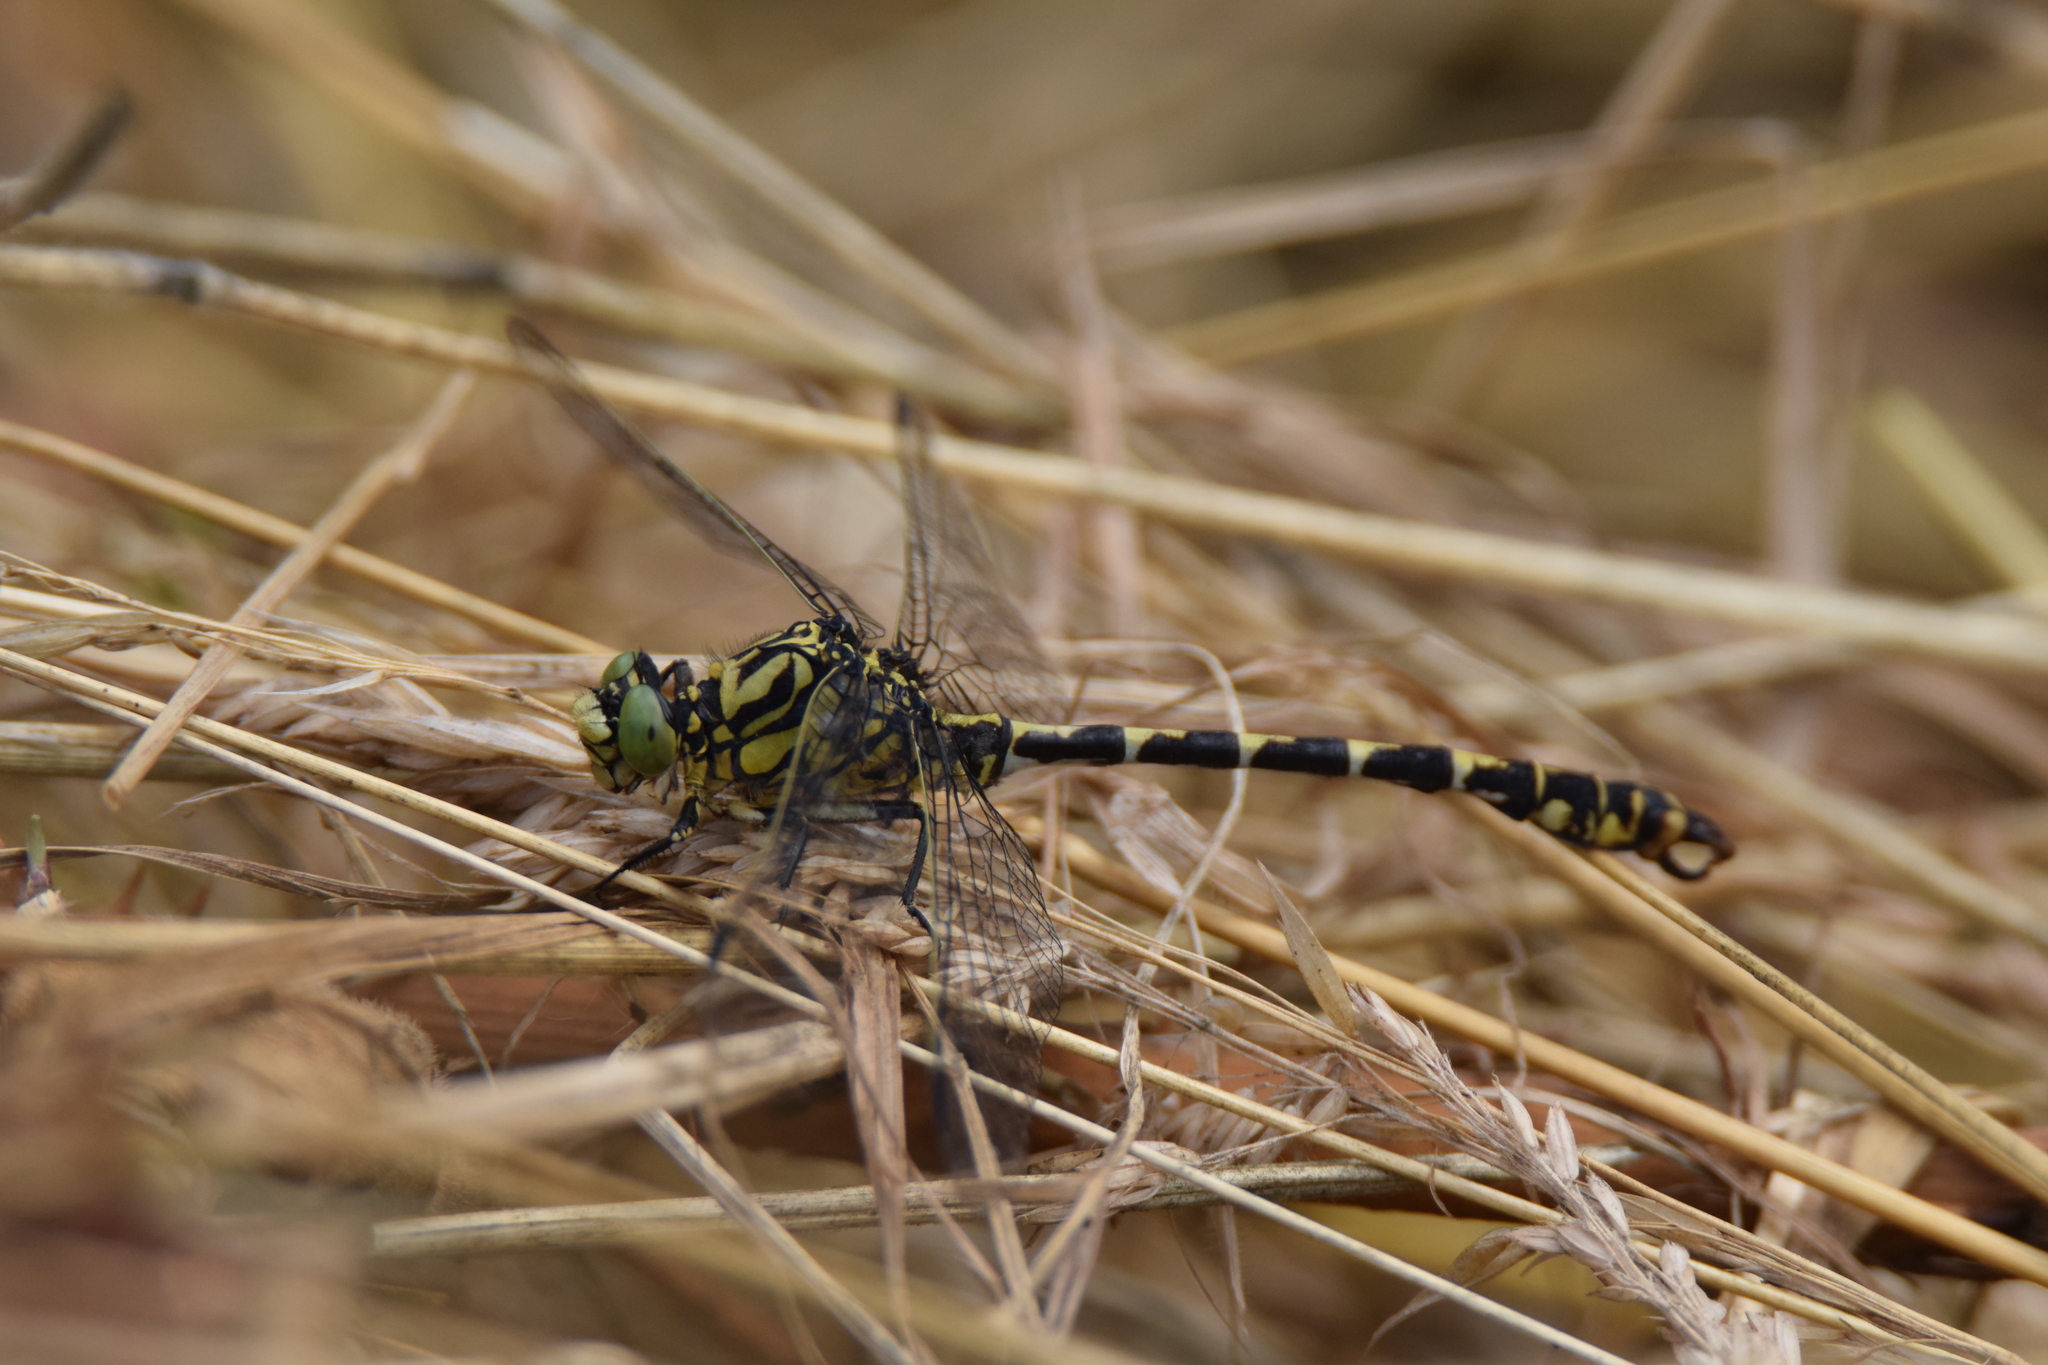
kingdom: Animalia
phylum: Arthropoda
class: Insecta
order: Odonata
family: Gomphidae
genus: Onychogomphus
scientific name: Onychogomphus forcipatus
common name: Small pincertail
